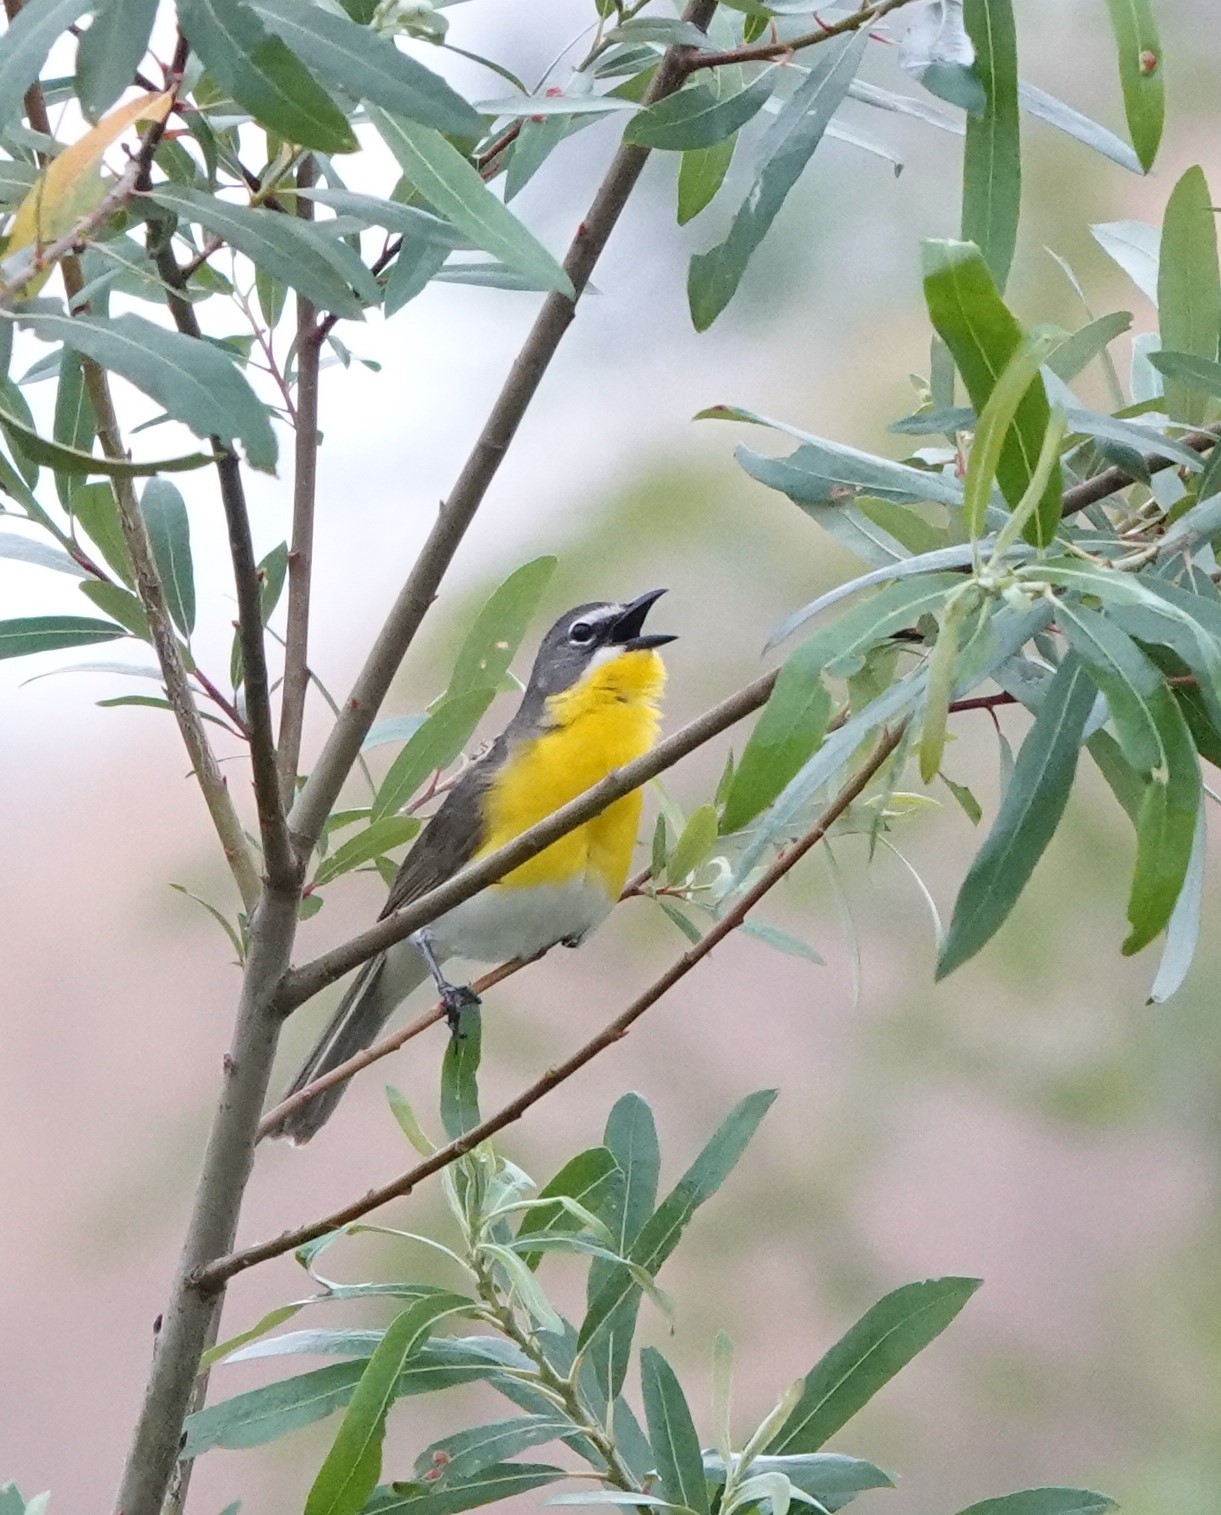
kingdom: Animalia
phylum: Chordata
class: Aves
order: Passeriformes
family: Parulidae
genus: Icteria
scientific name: Icteria virens
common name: Yellow-breasted chat
